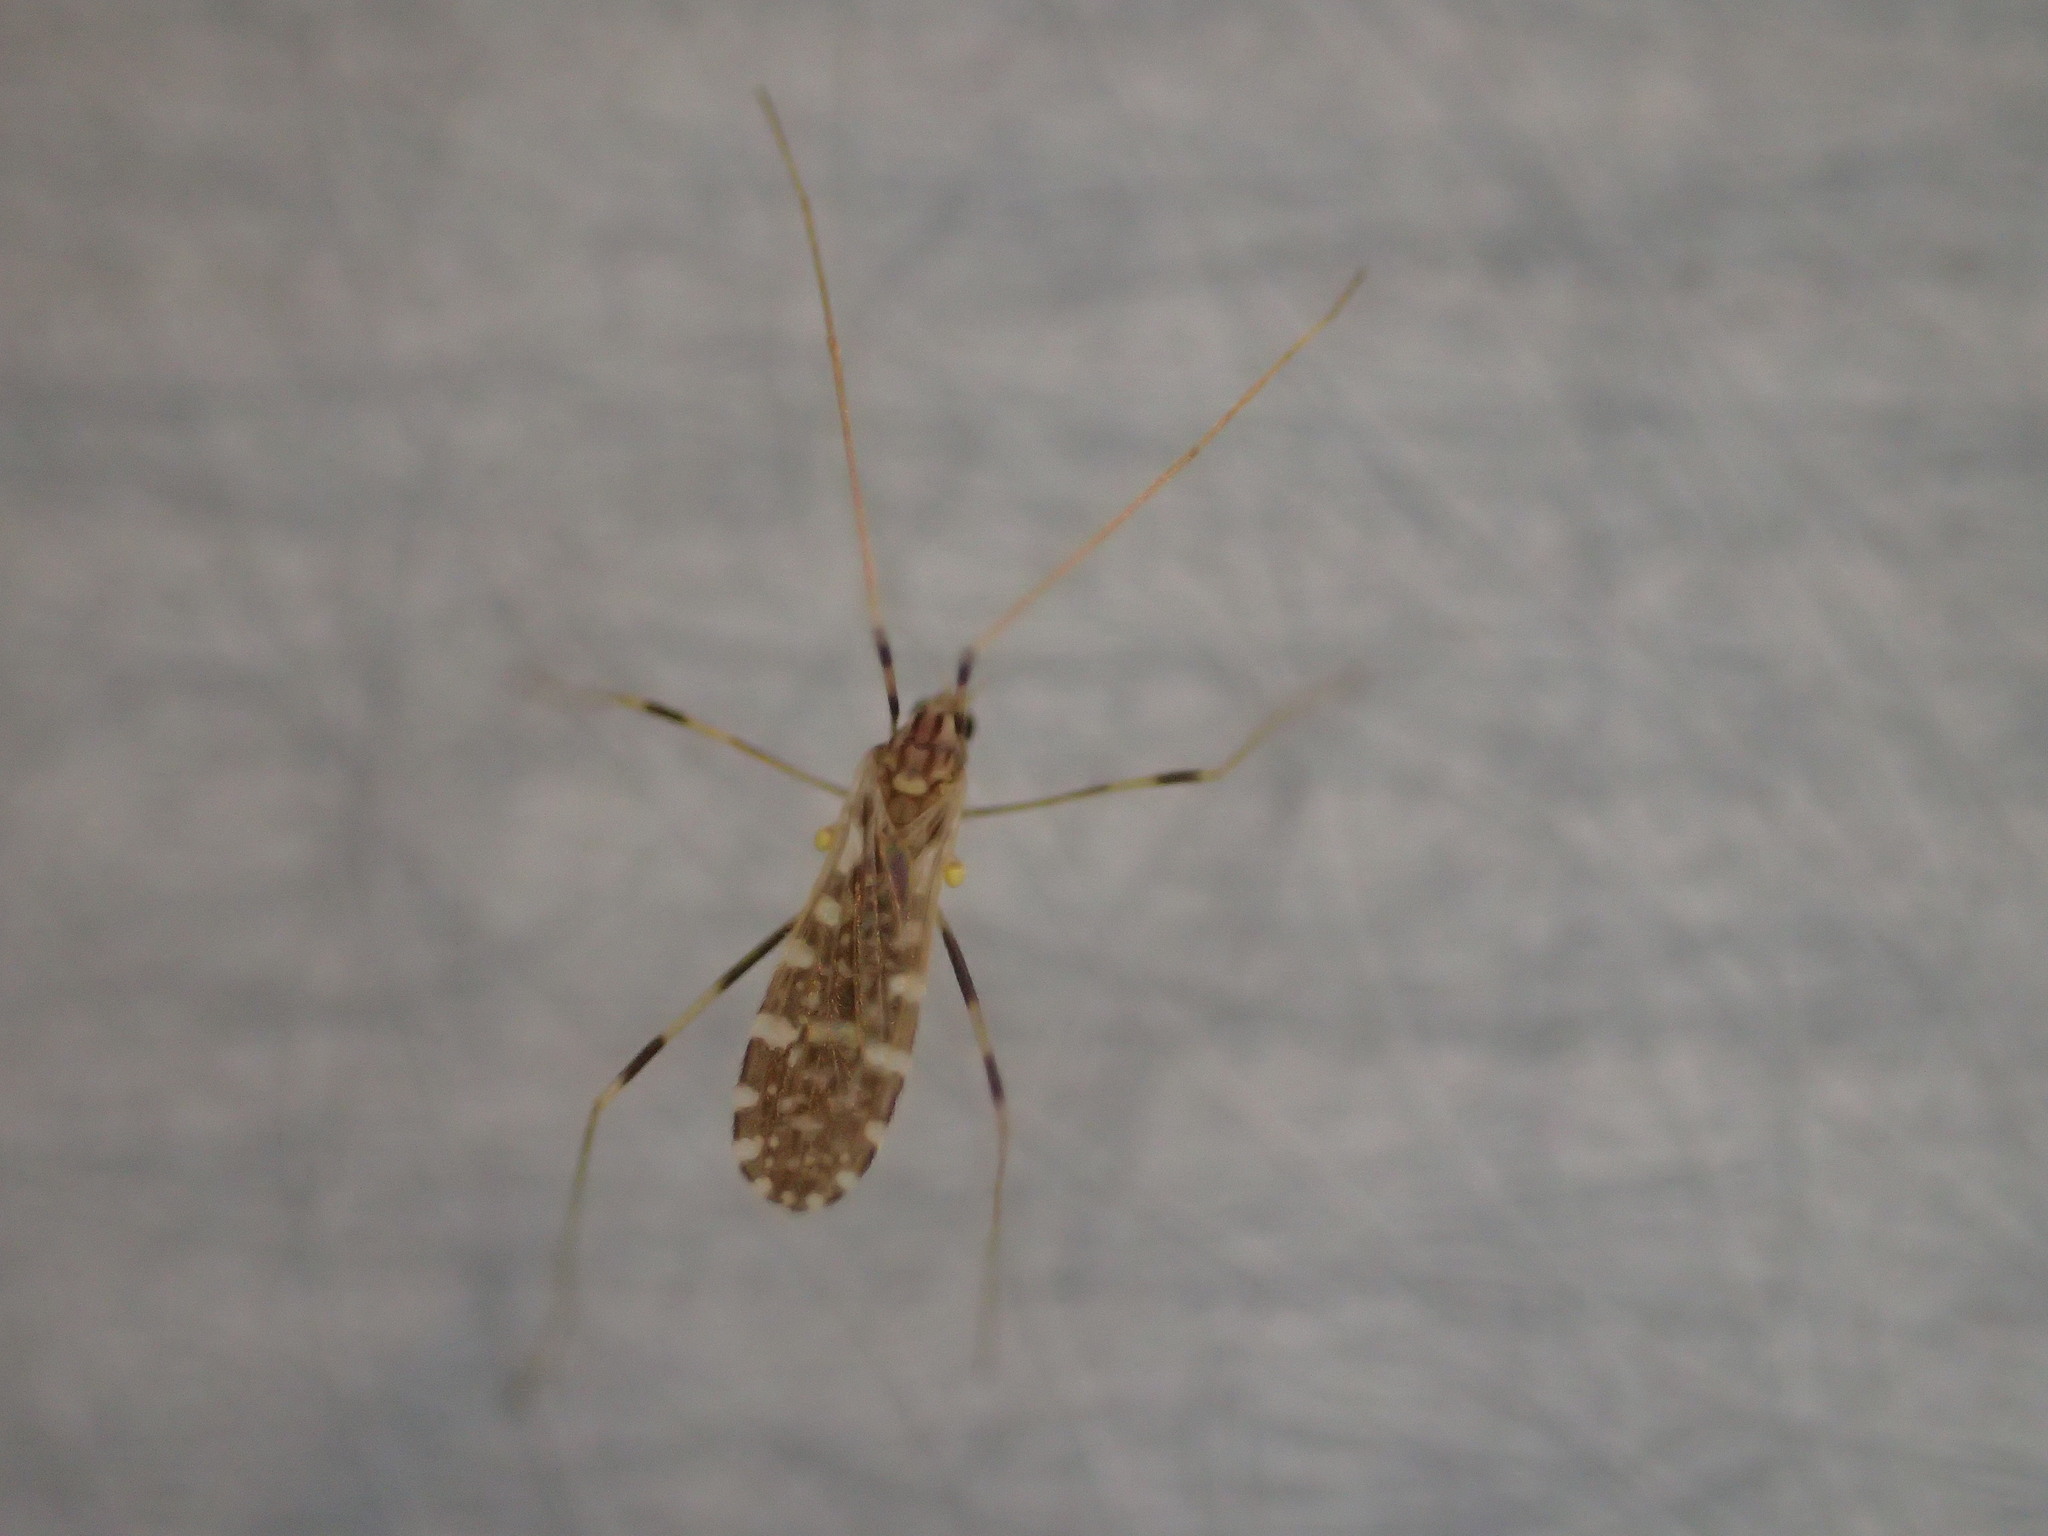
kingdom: Animalia
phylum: Arthropoda
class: Insecta
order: Diptera
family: Limoniidae
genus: Erioptera
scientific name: Erioptera caliptera
